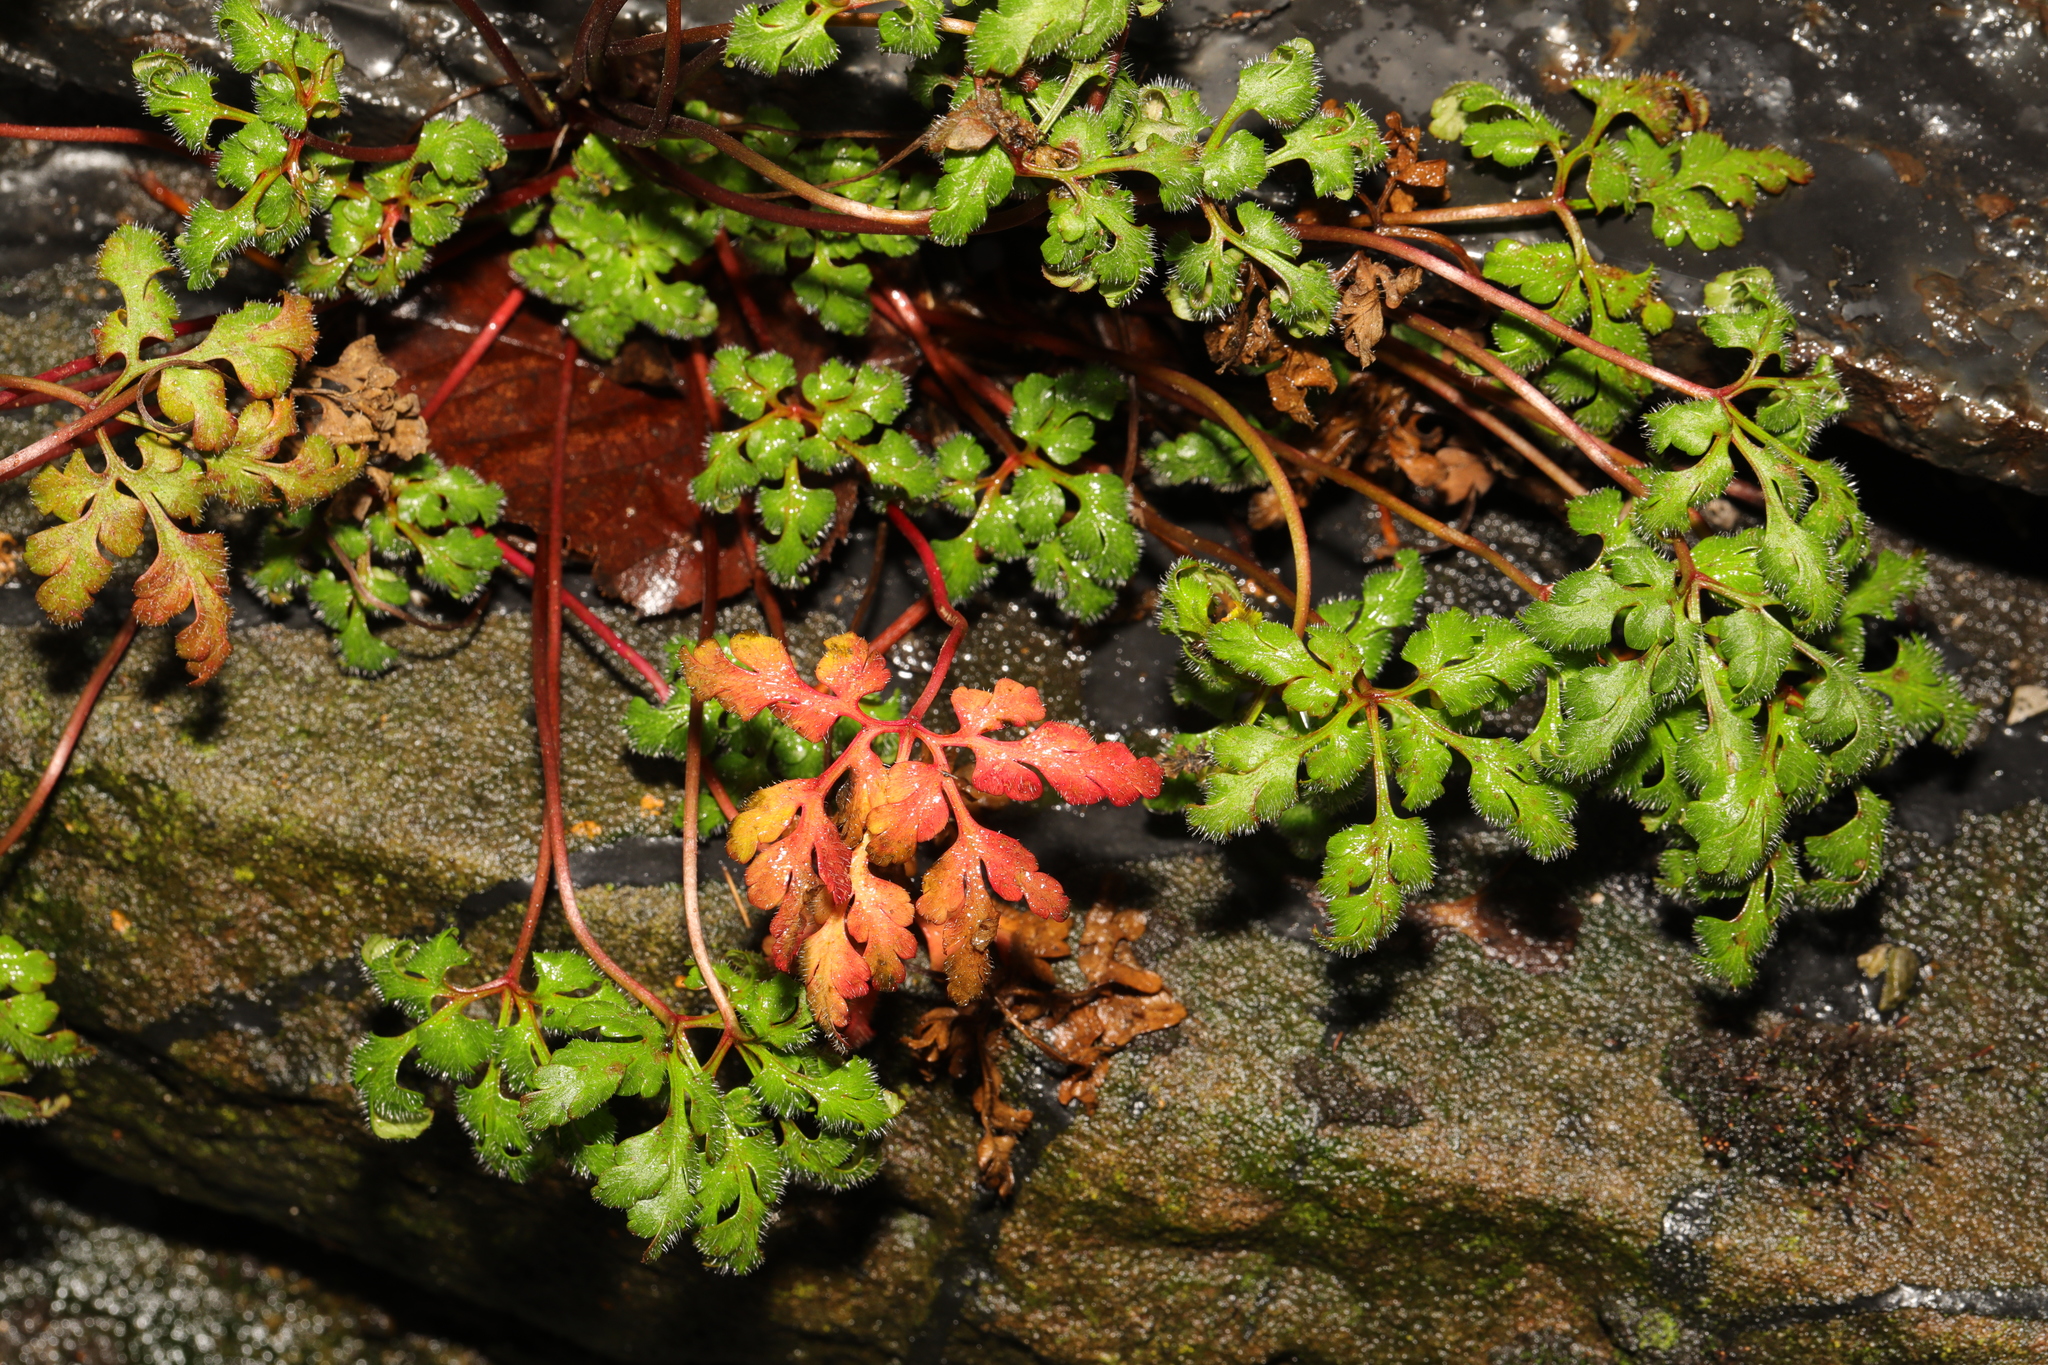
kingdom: Plantae
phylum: Tracheophyta
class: Magnoliopsida
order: Geraniales
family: Geraniaceae
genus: Geranium
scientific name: Geranium robertianum
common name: Herb-robert
